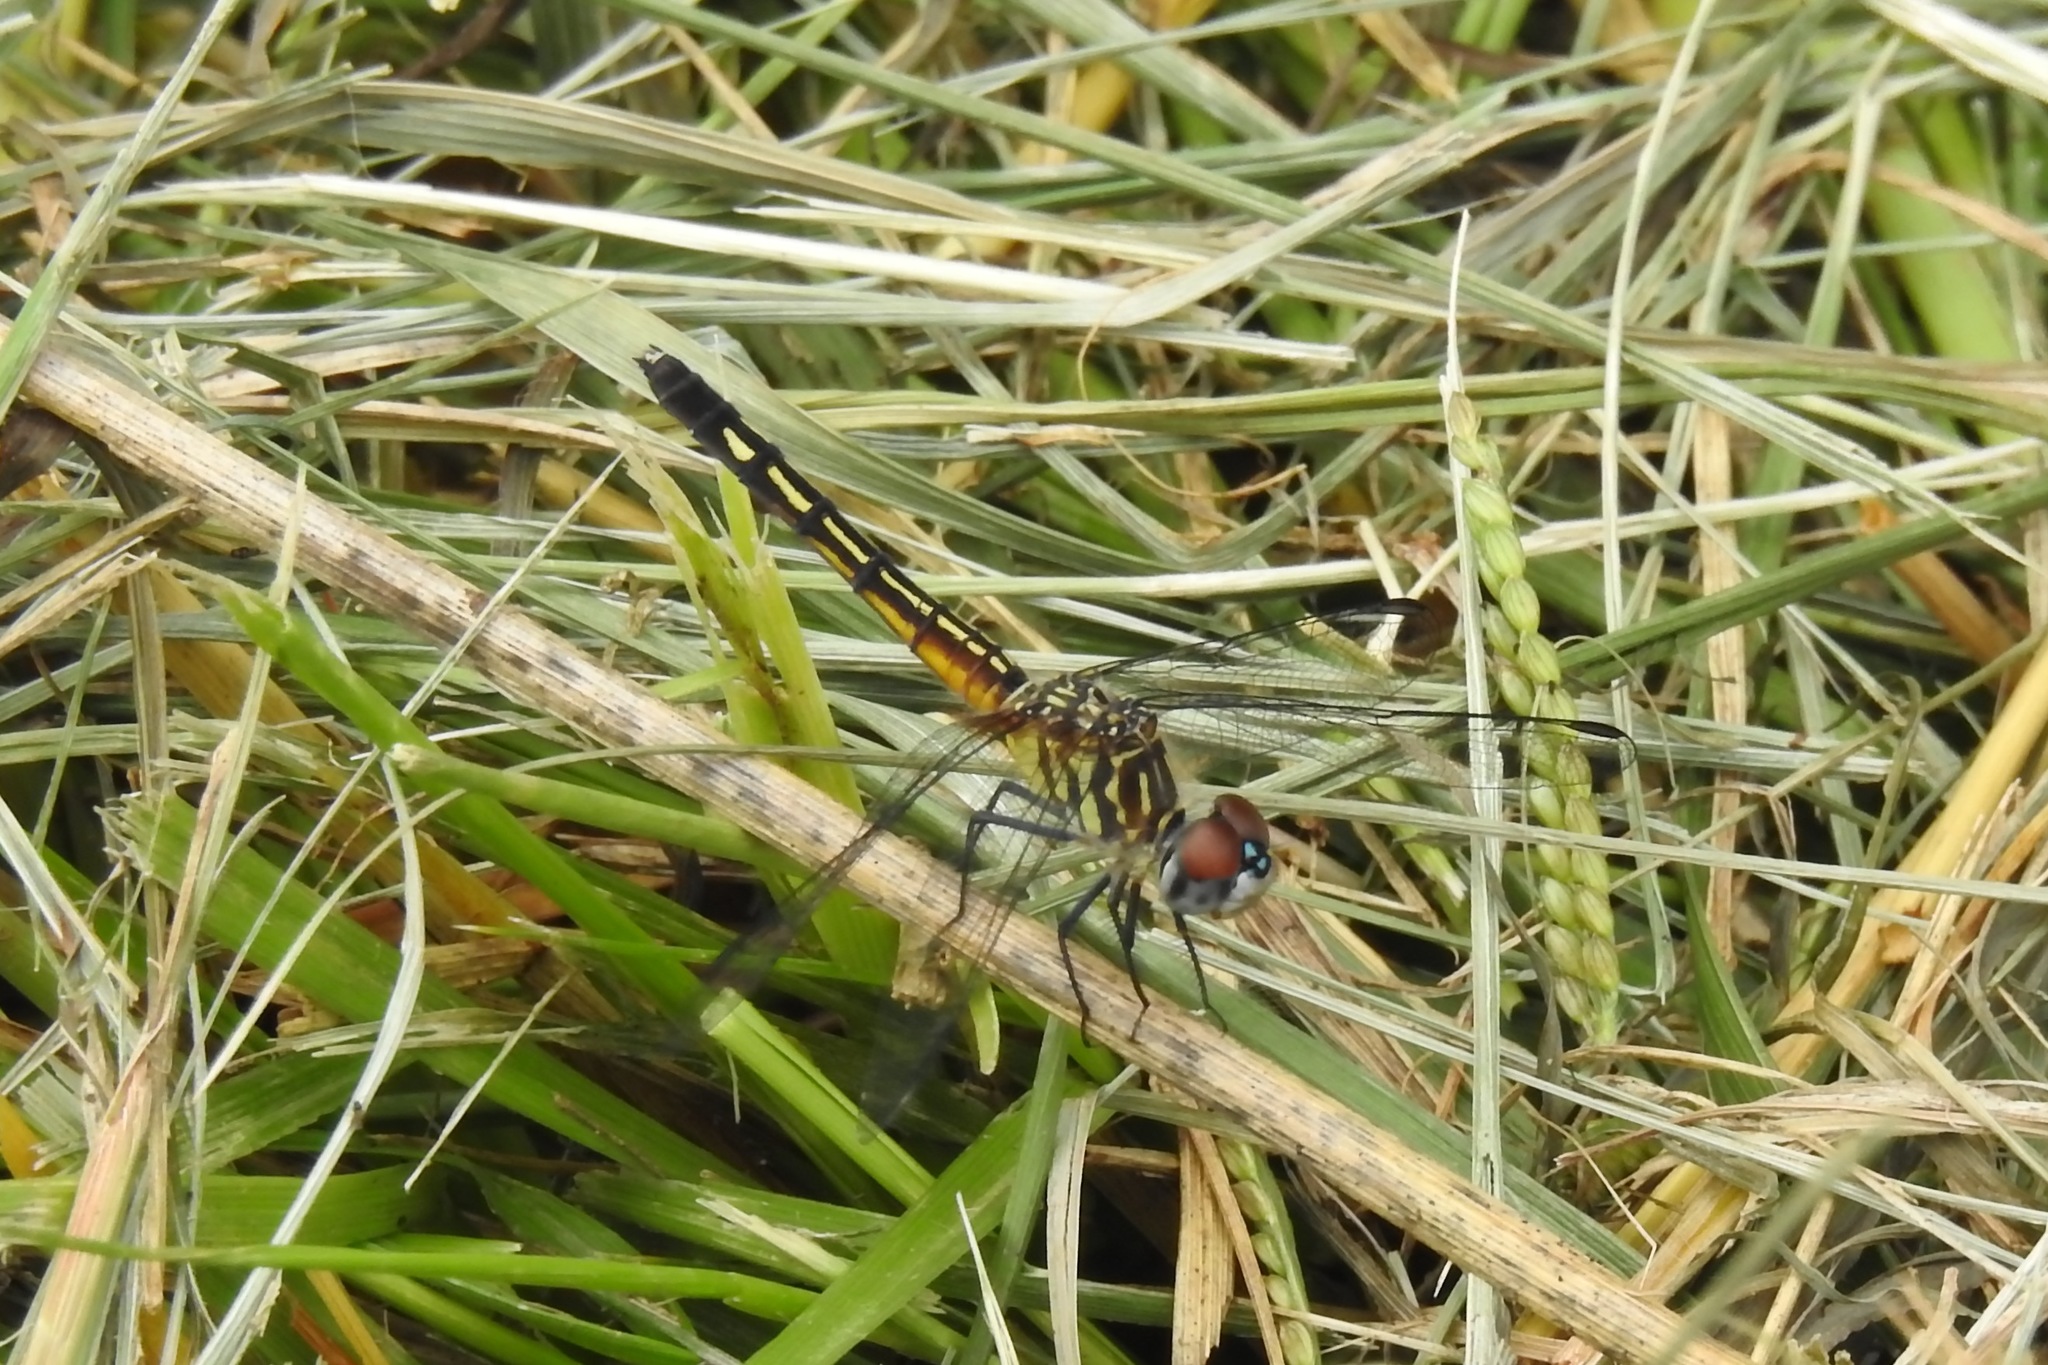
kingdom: Animalia
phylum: Arthropoda
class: Insecta
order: Odonata
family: Libellulidae
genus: Pachydiplax
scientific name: Pachydiplax longipennis
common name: Blue dasher
